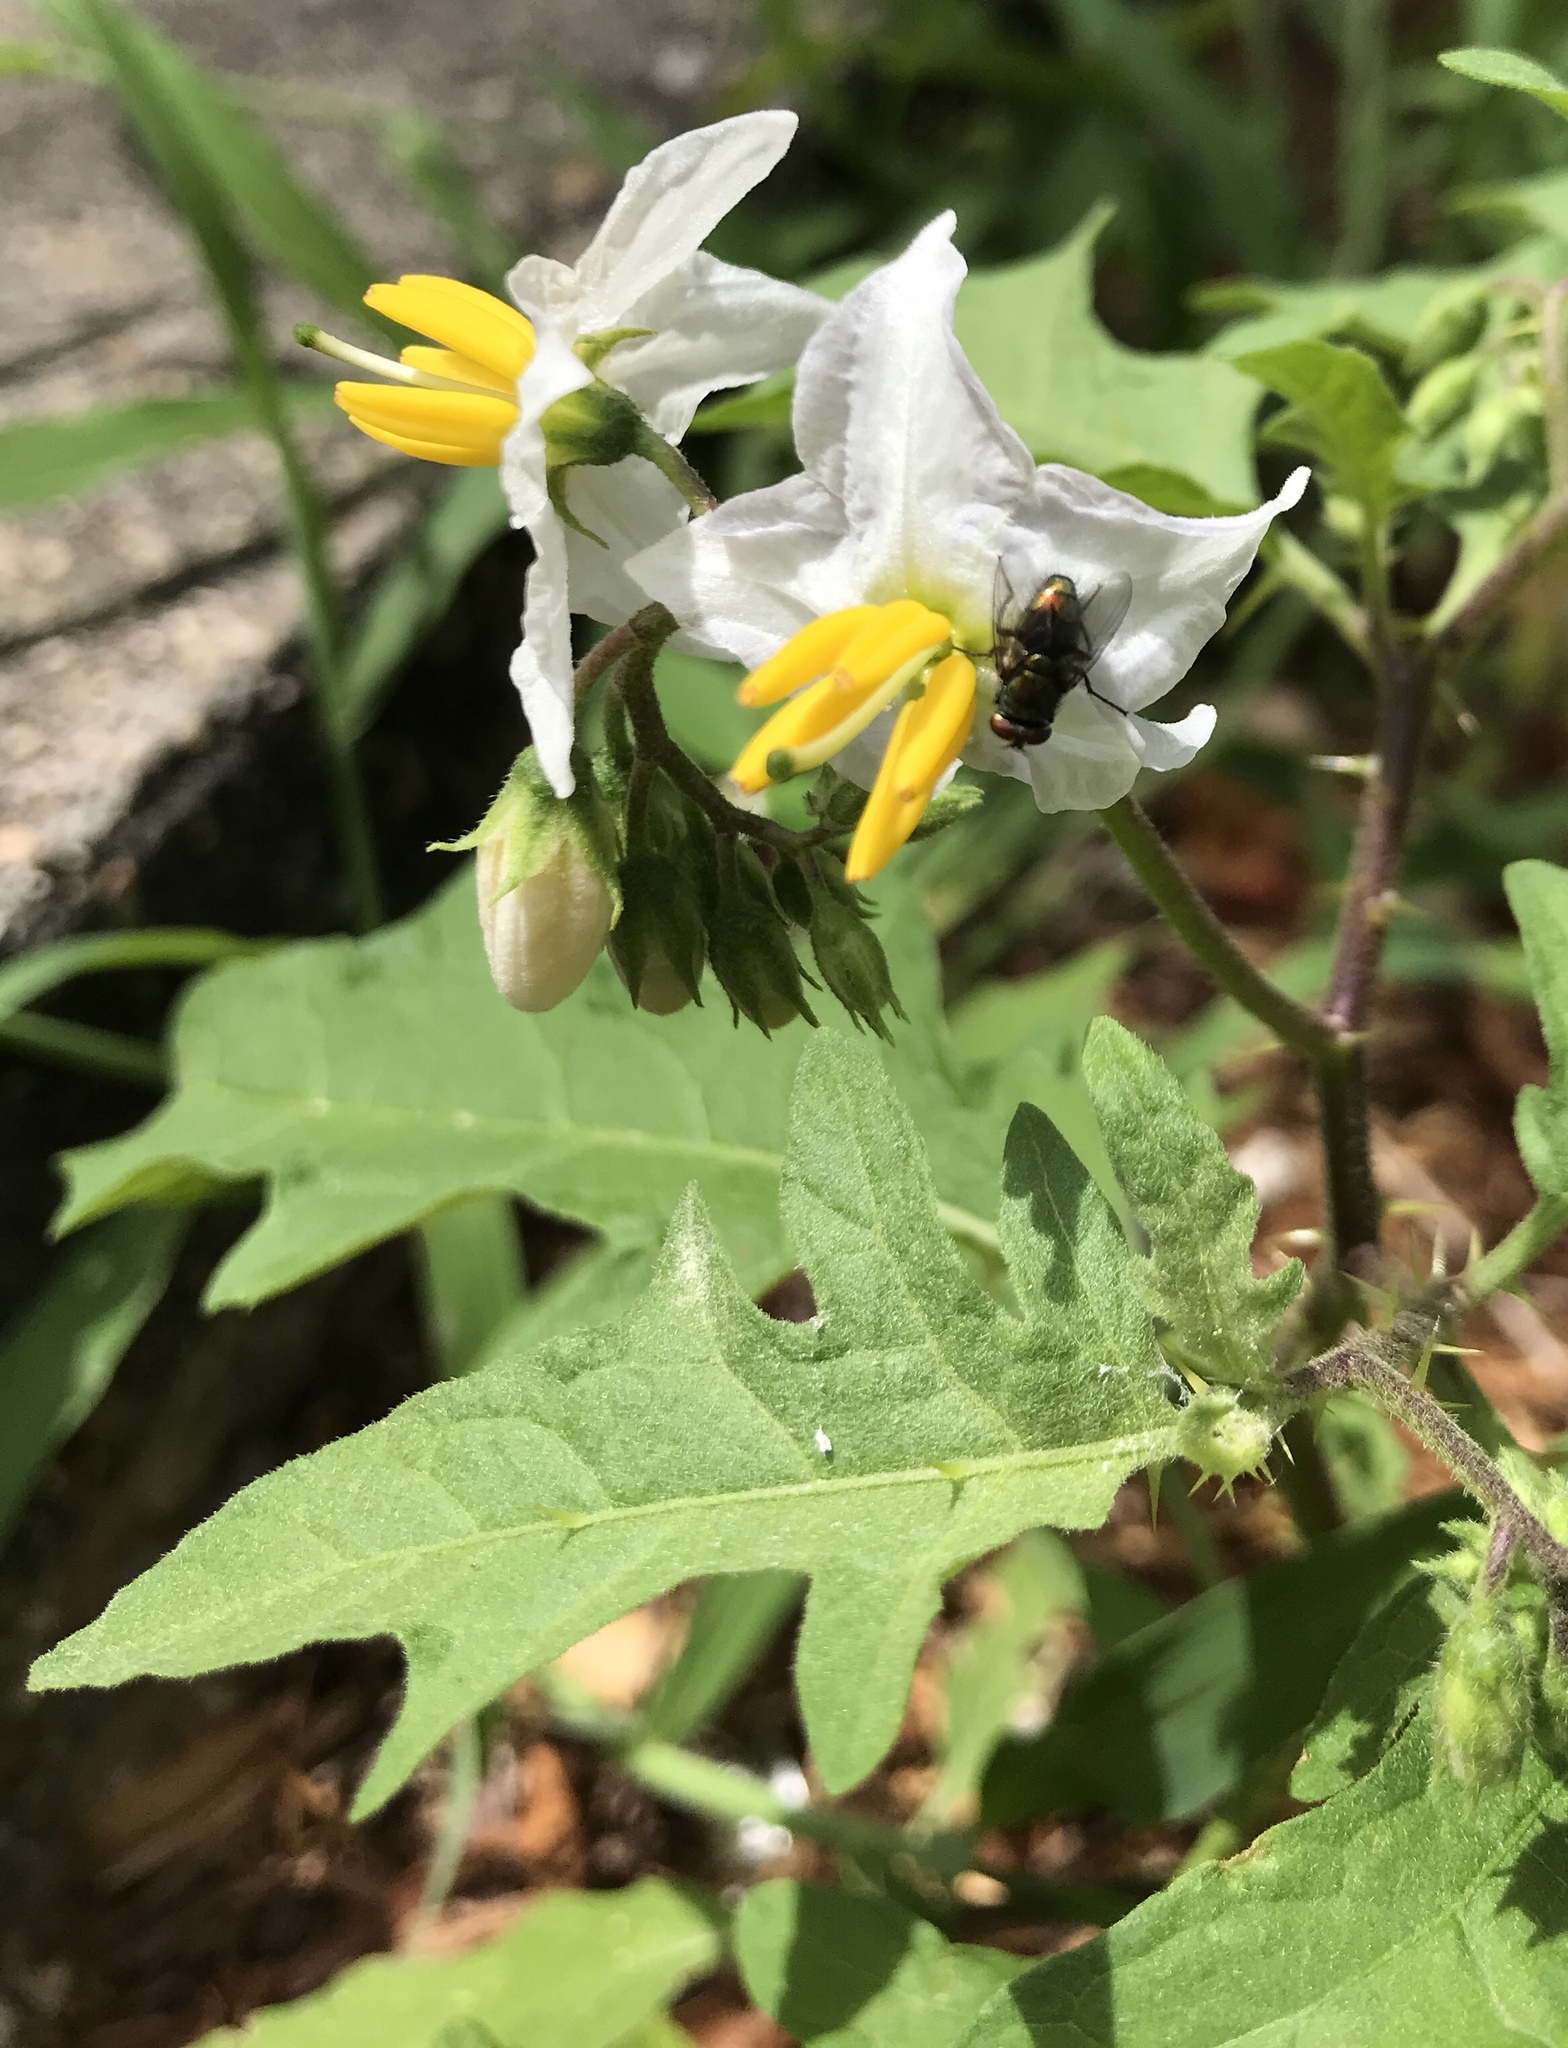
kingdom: Plantae
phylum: Tracheophyta
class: Magnoliopsida
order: Solanales
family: Solanaceae
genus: Solanum
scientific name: Solanum carolinense
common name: Horse-nettle
